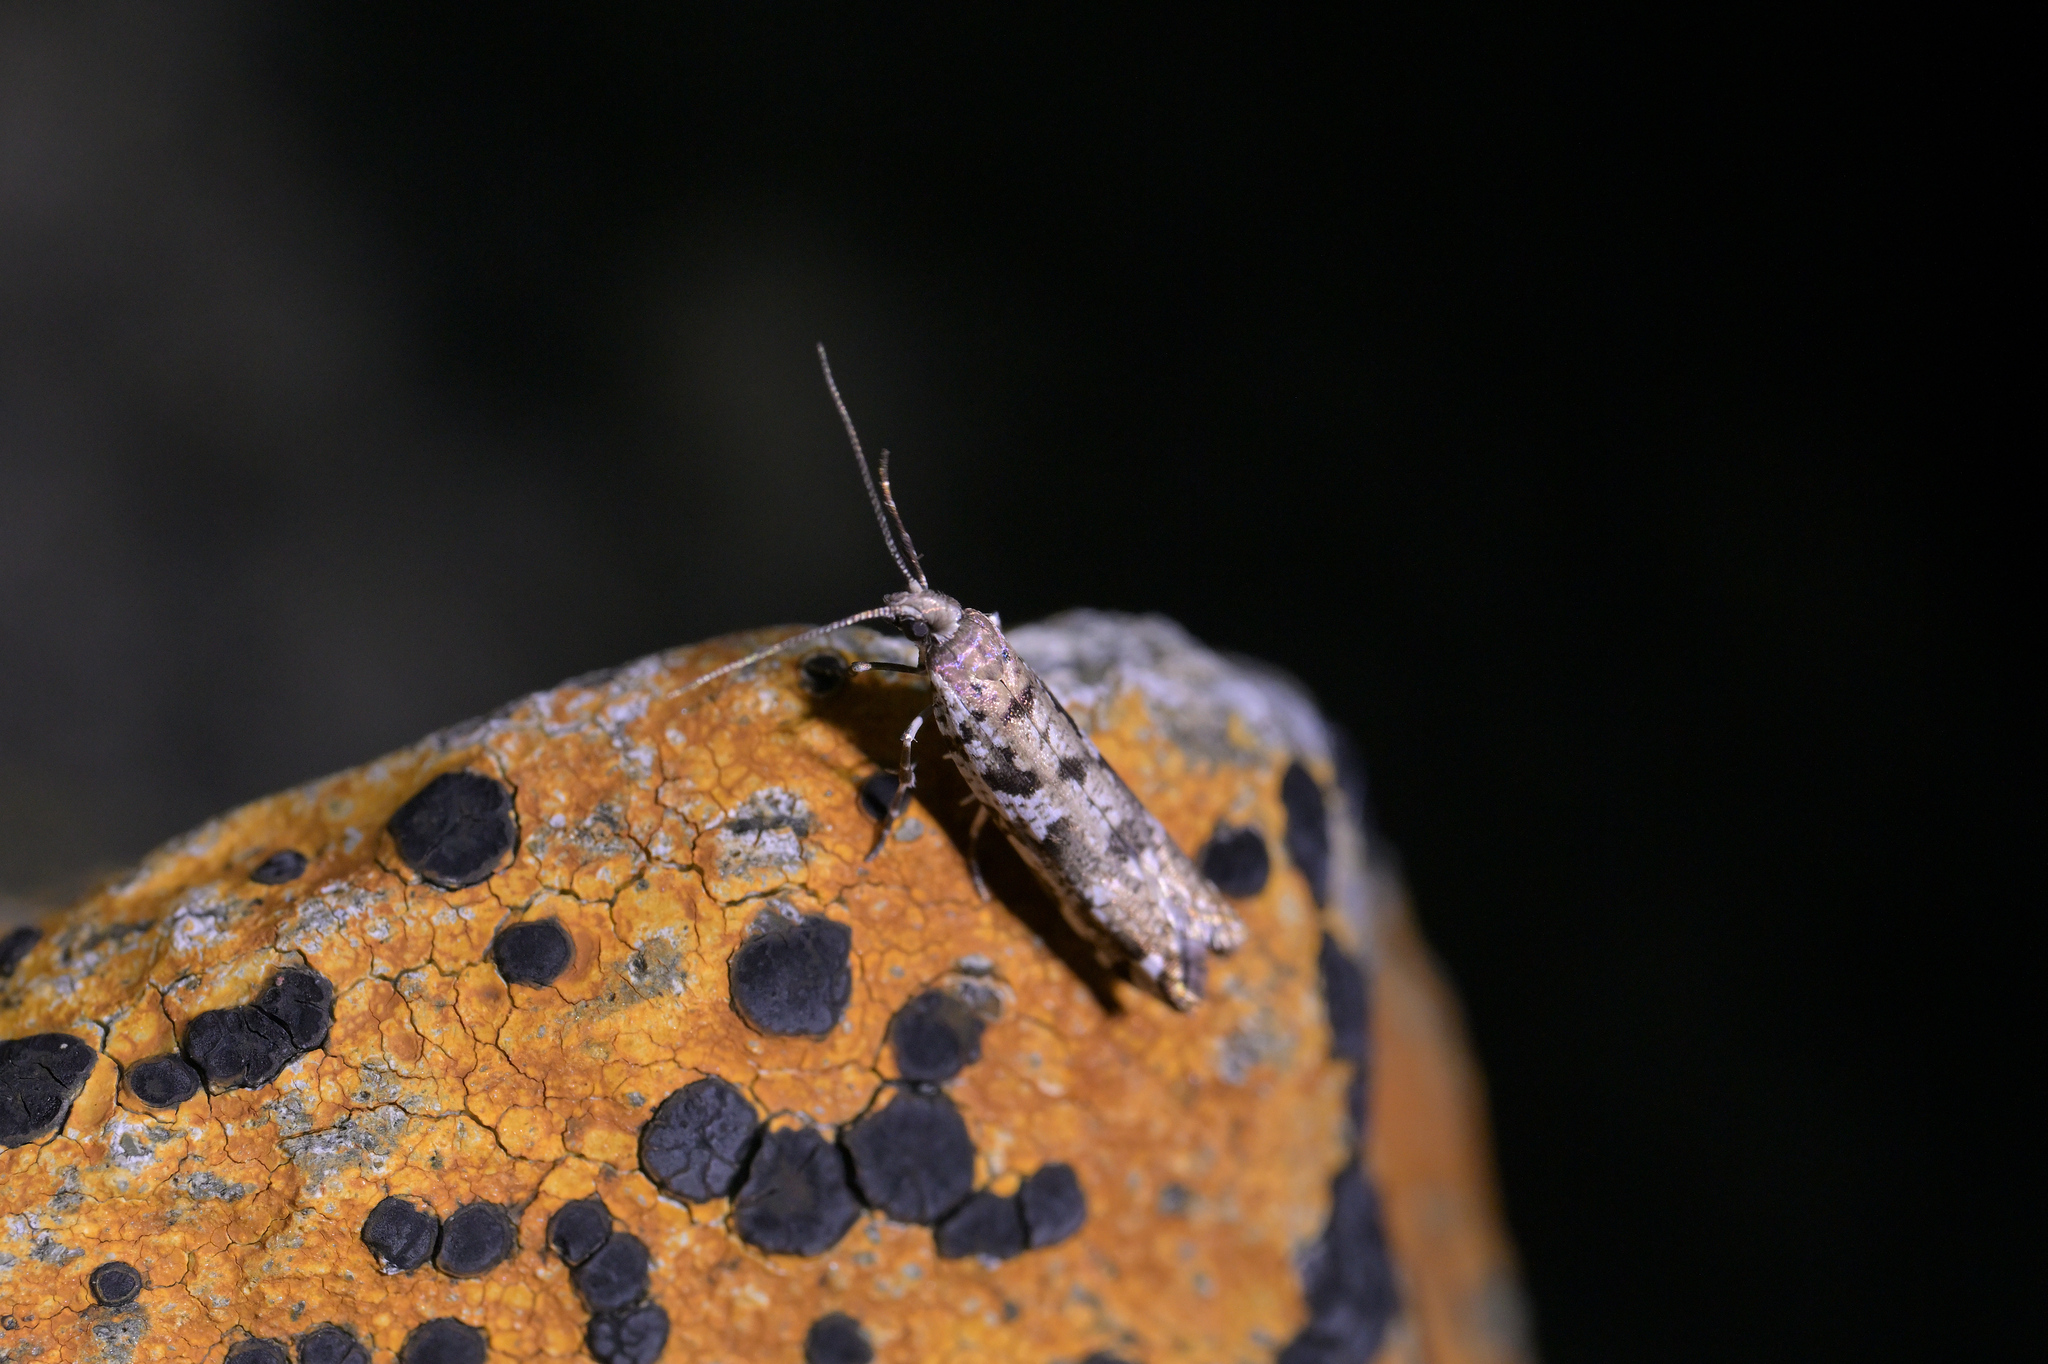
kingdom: Animalia
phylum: Arthropoda
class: Insecta
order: Lepidoptera
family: Glyphipterigidae
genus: Orthenches
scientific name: Orthenches dictyarcha
